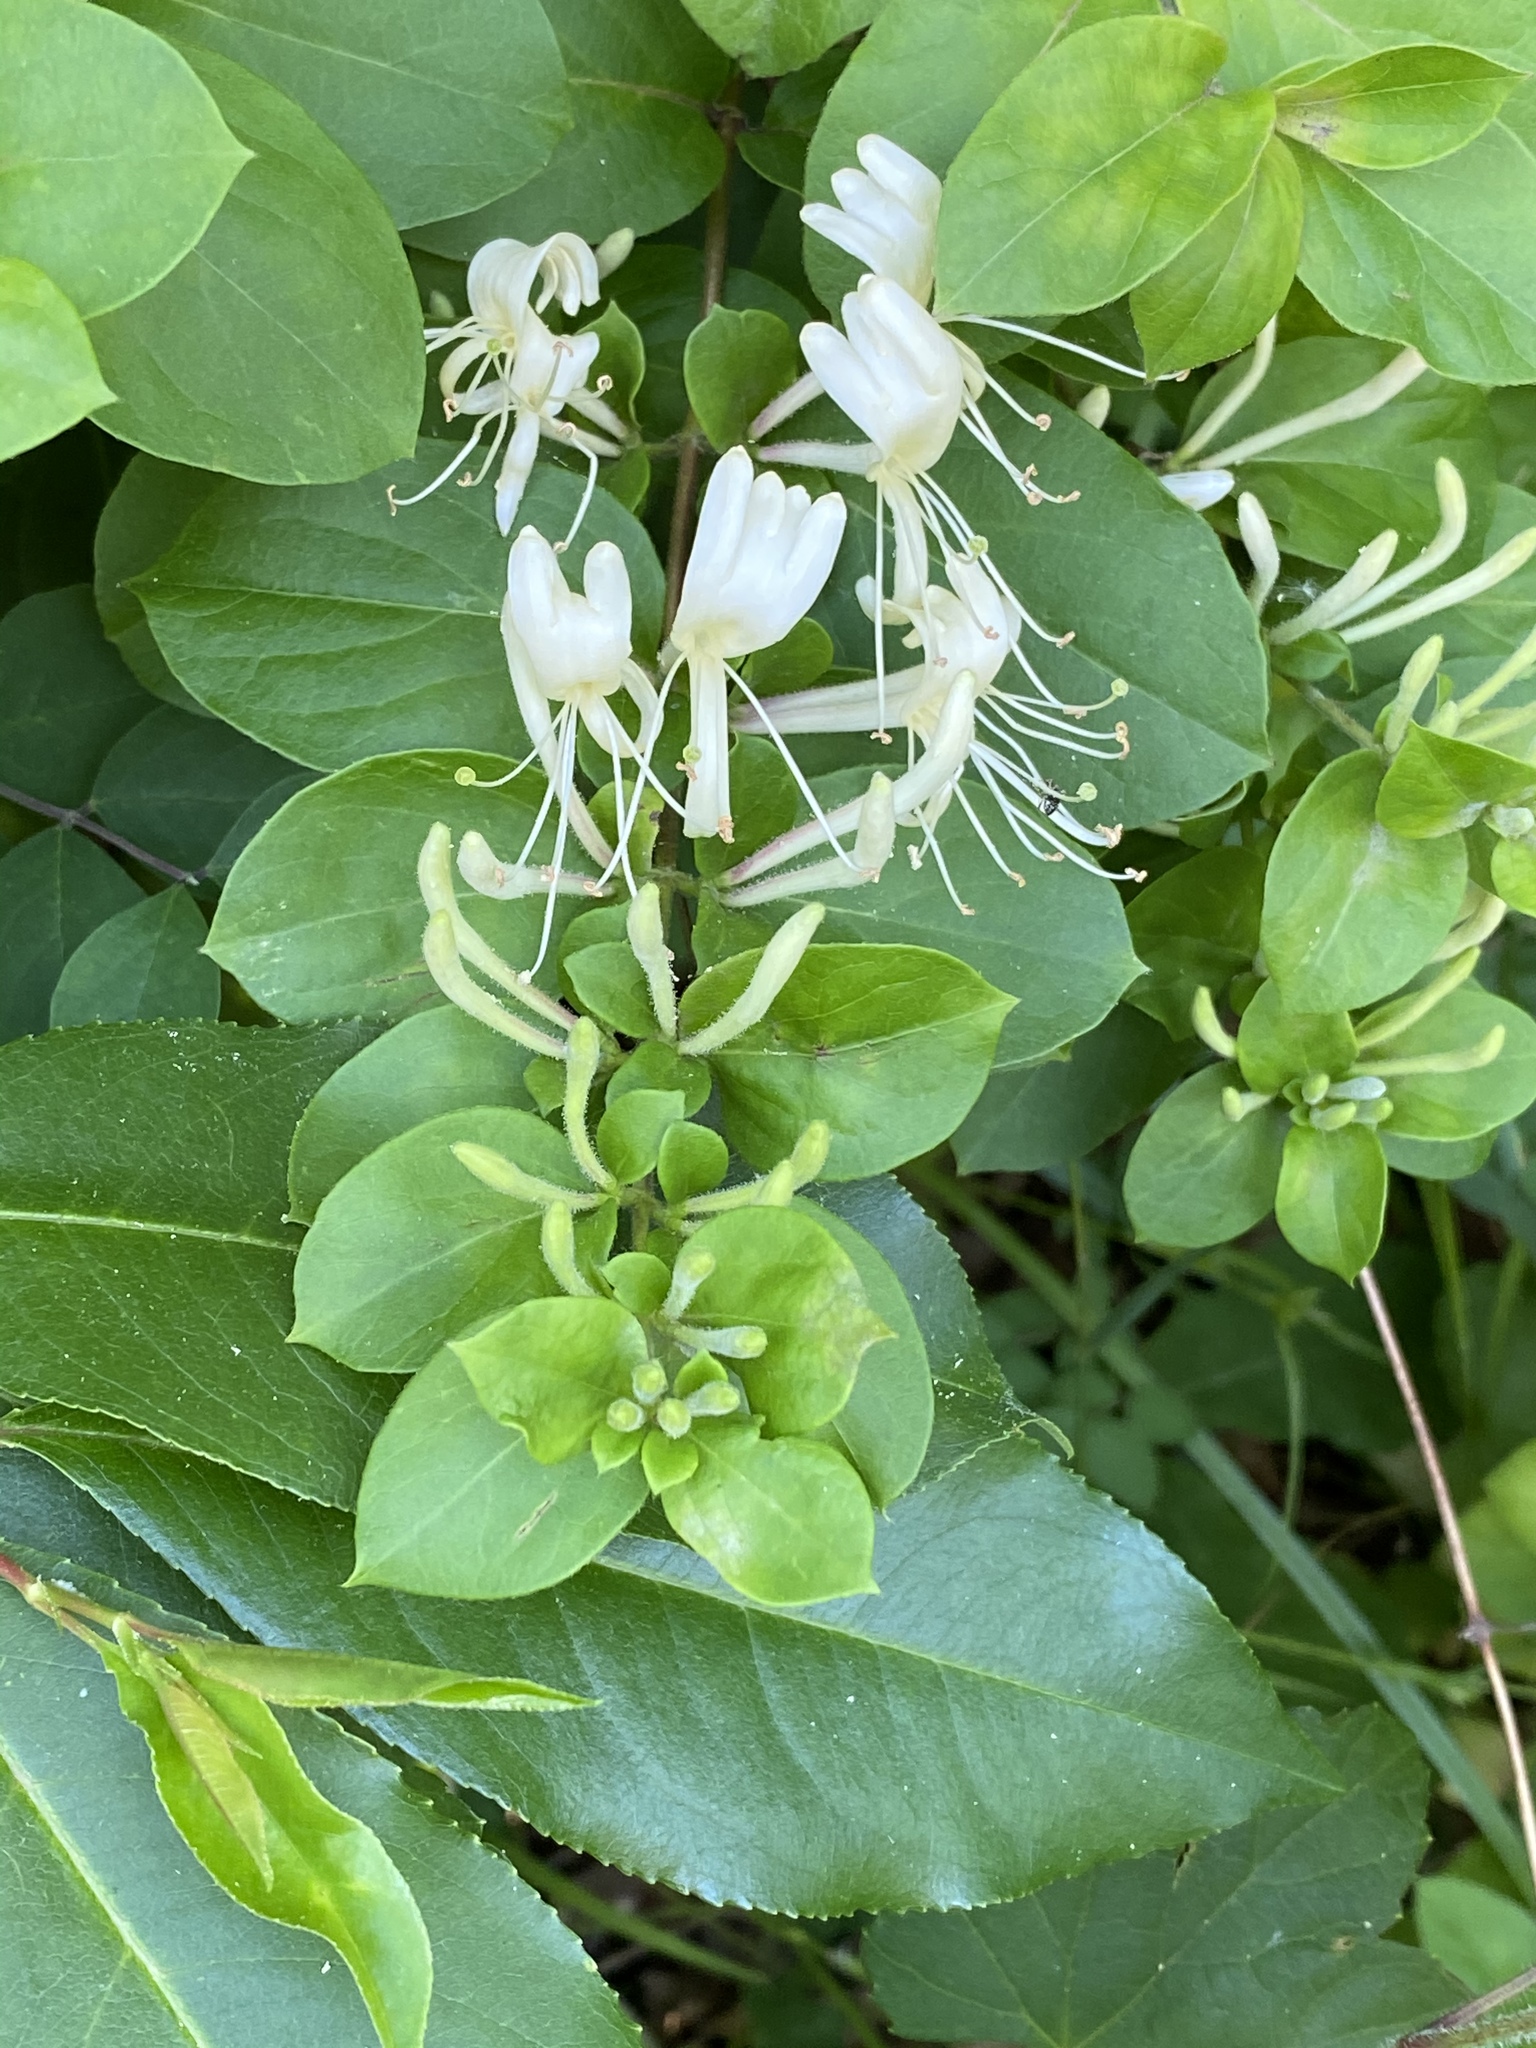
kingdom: Plantae
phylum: Tracheophyta
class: Magnoliopsida
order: Dipsacales
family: Caprifoliaceae
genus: Lonicera
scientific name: Lonicera japonica
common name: Japanese honeysuckle
